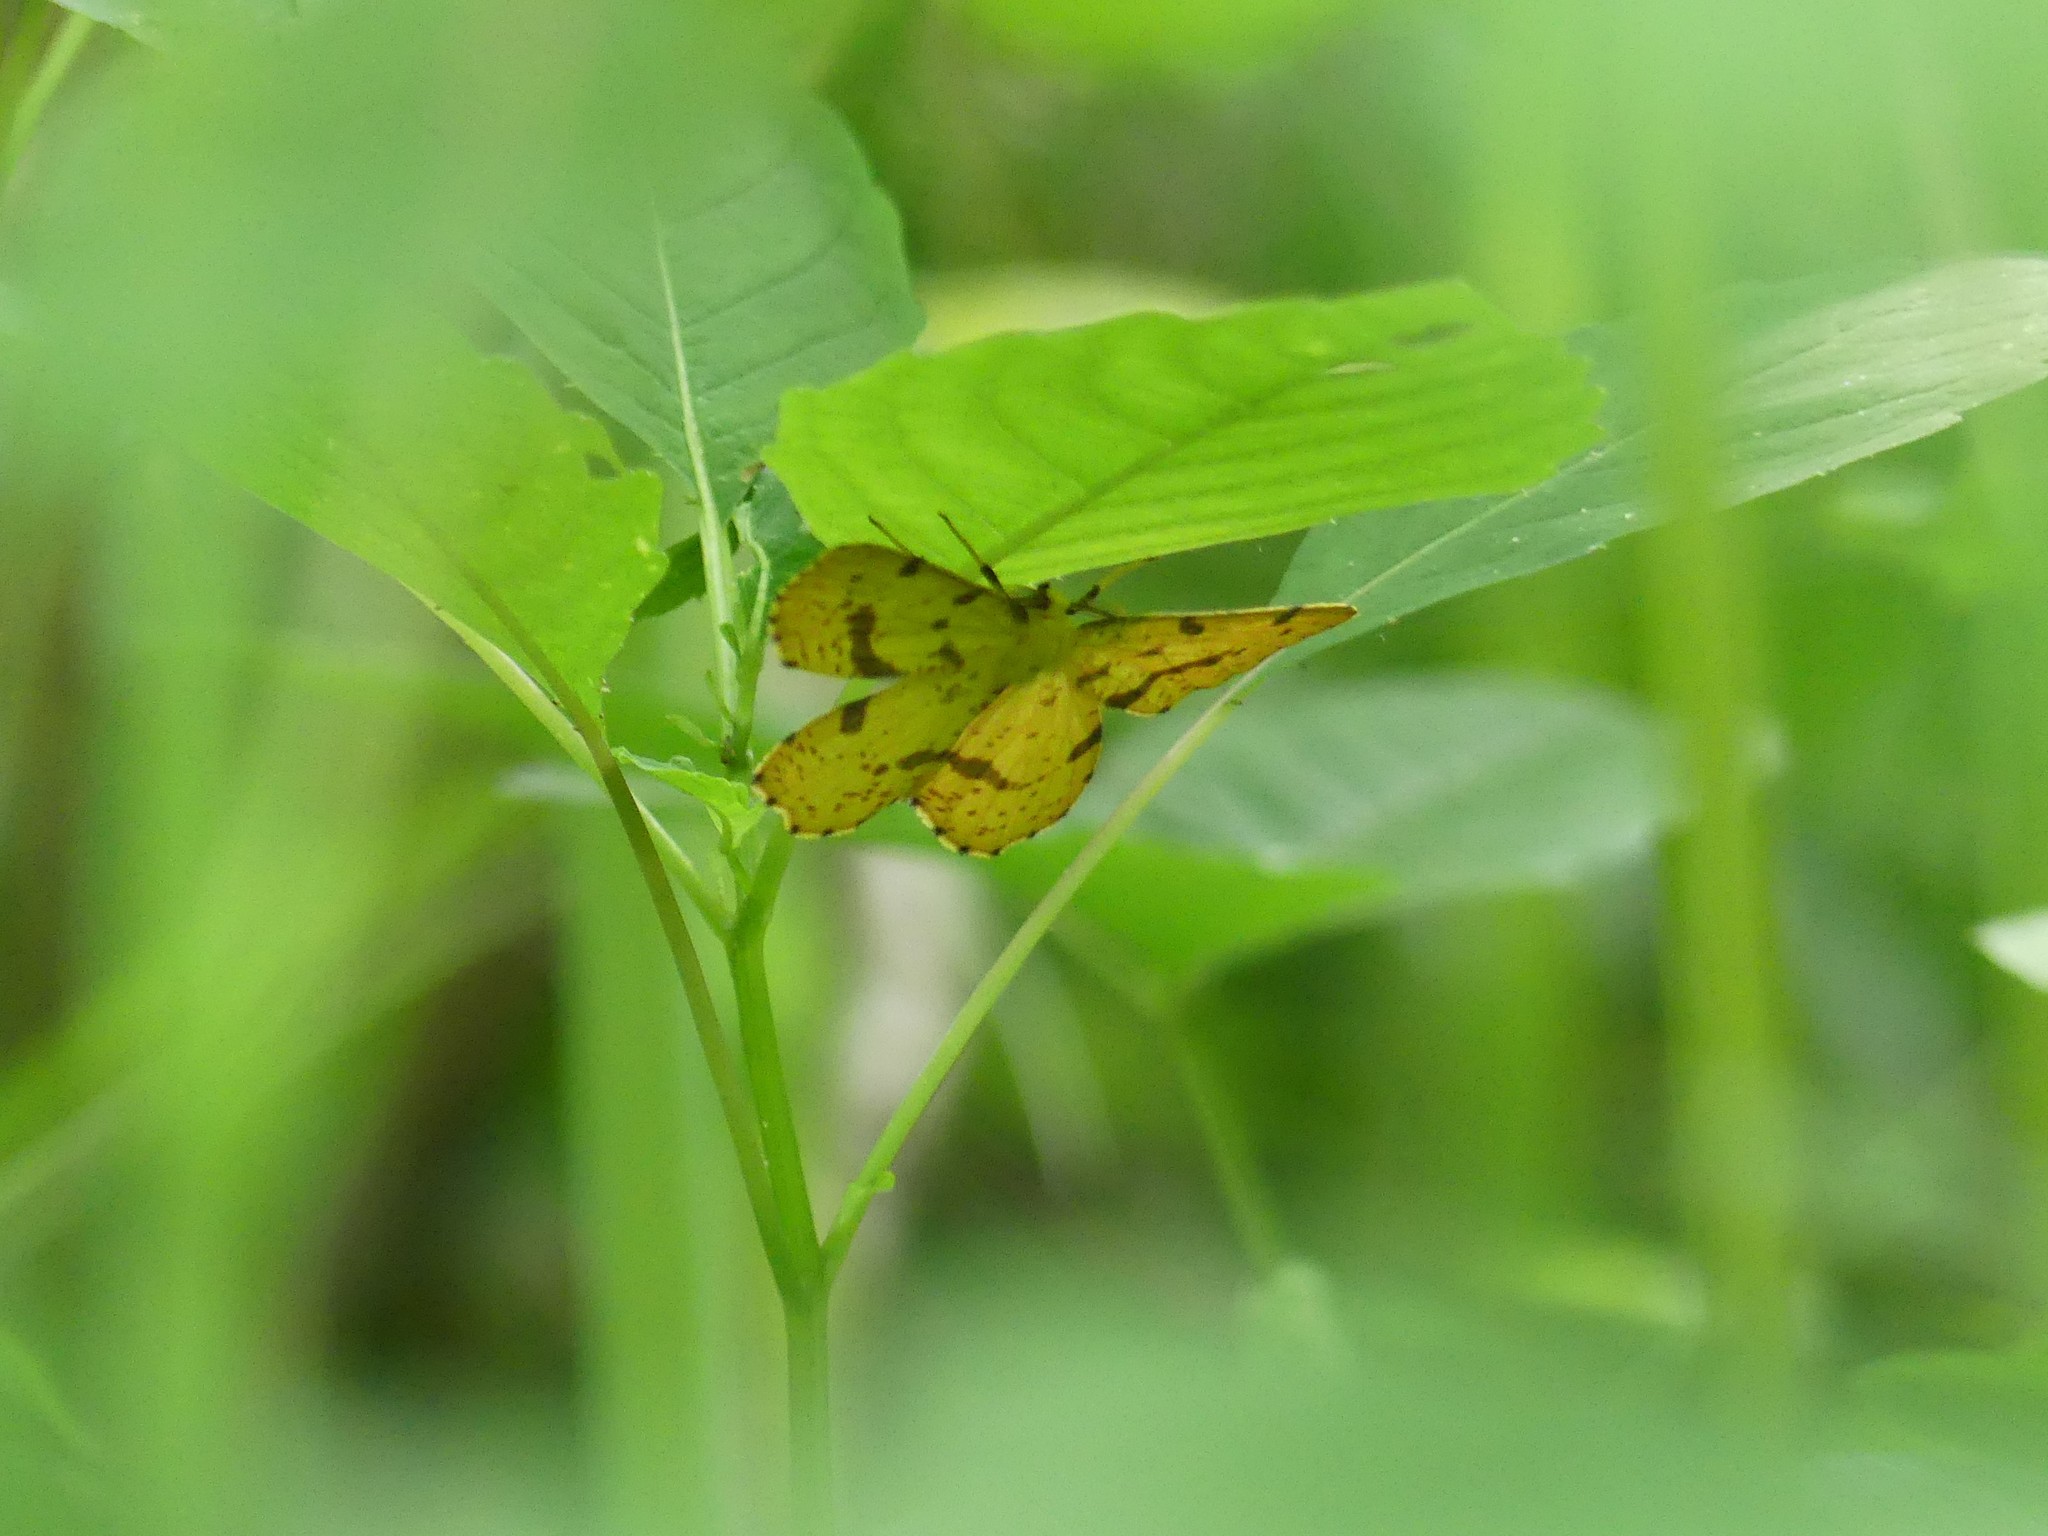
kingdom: Animalia
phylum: Arthropoda
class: Insecta
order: Lepidoptera
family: Geometridae
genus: Xanthotype
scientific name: Xanthotype
